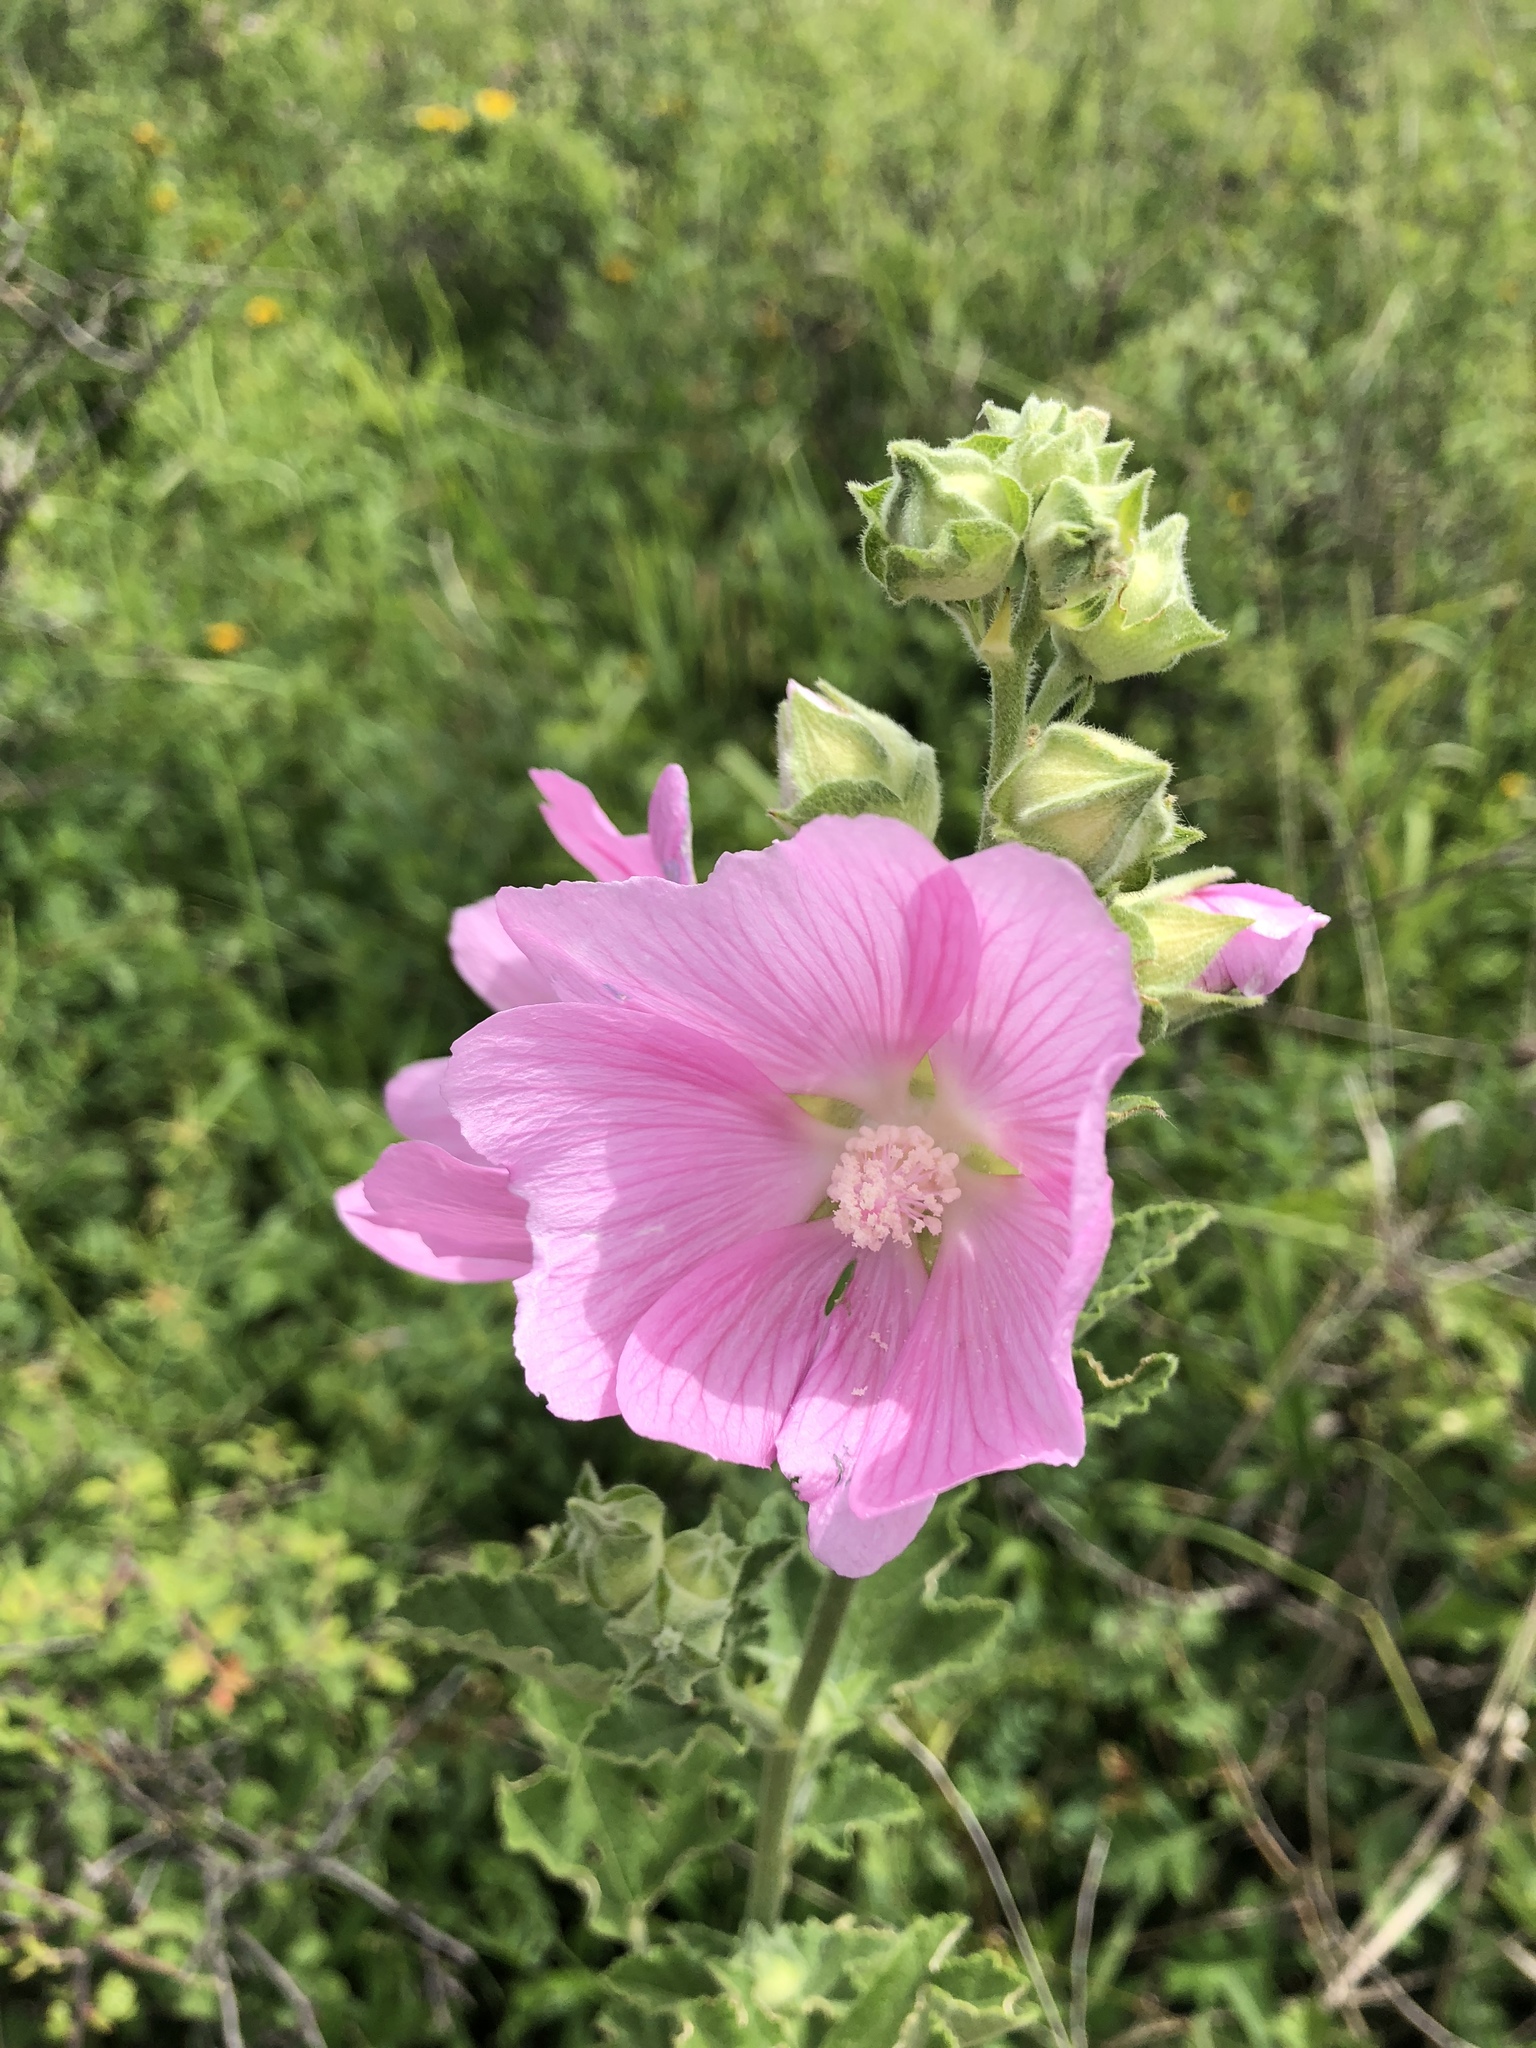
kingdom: Plantae
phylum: Tracheophyta
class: Magnoliopsida
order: Malvales
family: Malvaceae
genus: Malva
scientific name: Malva thuringiaca
